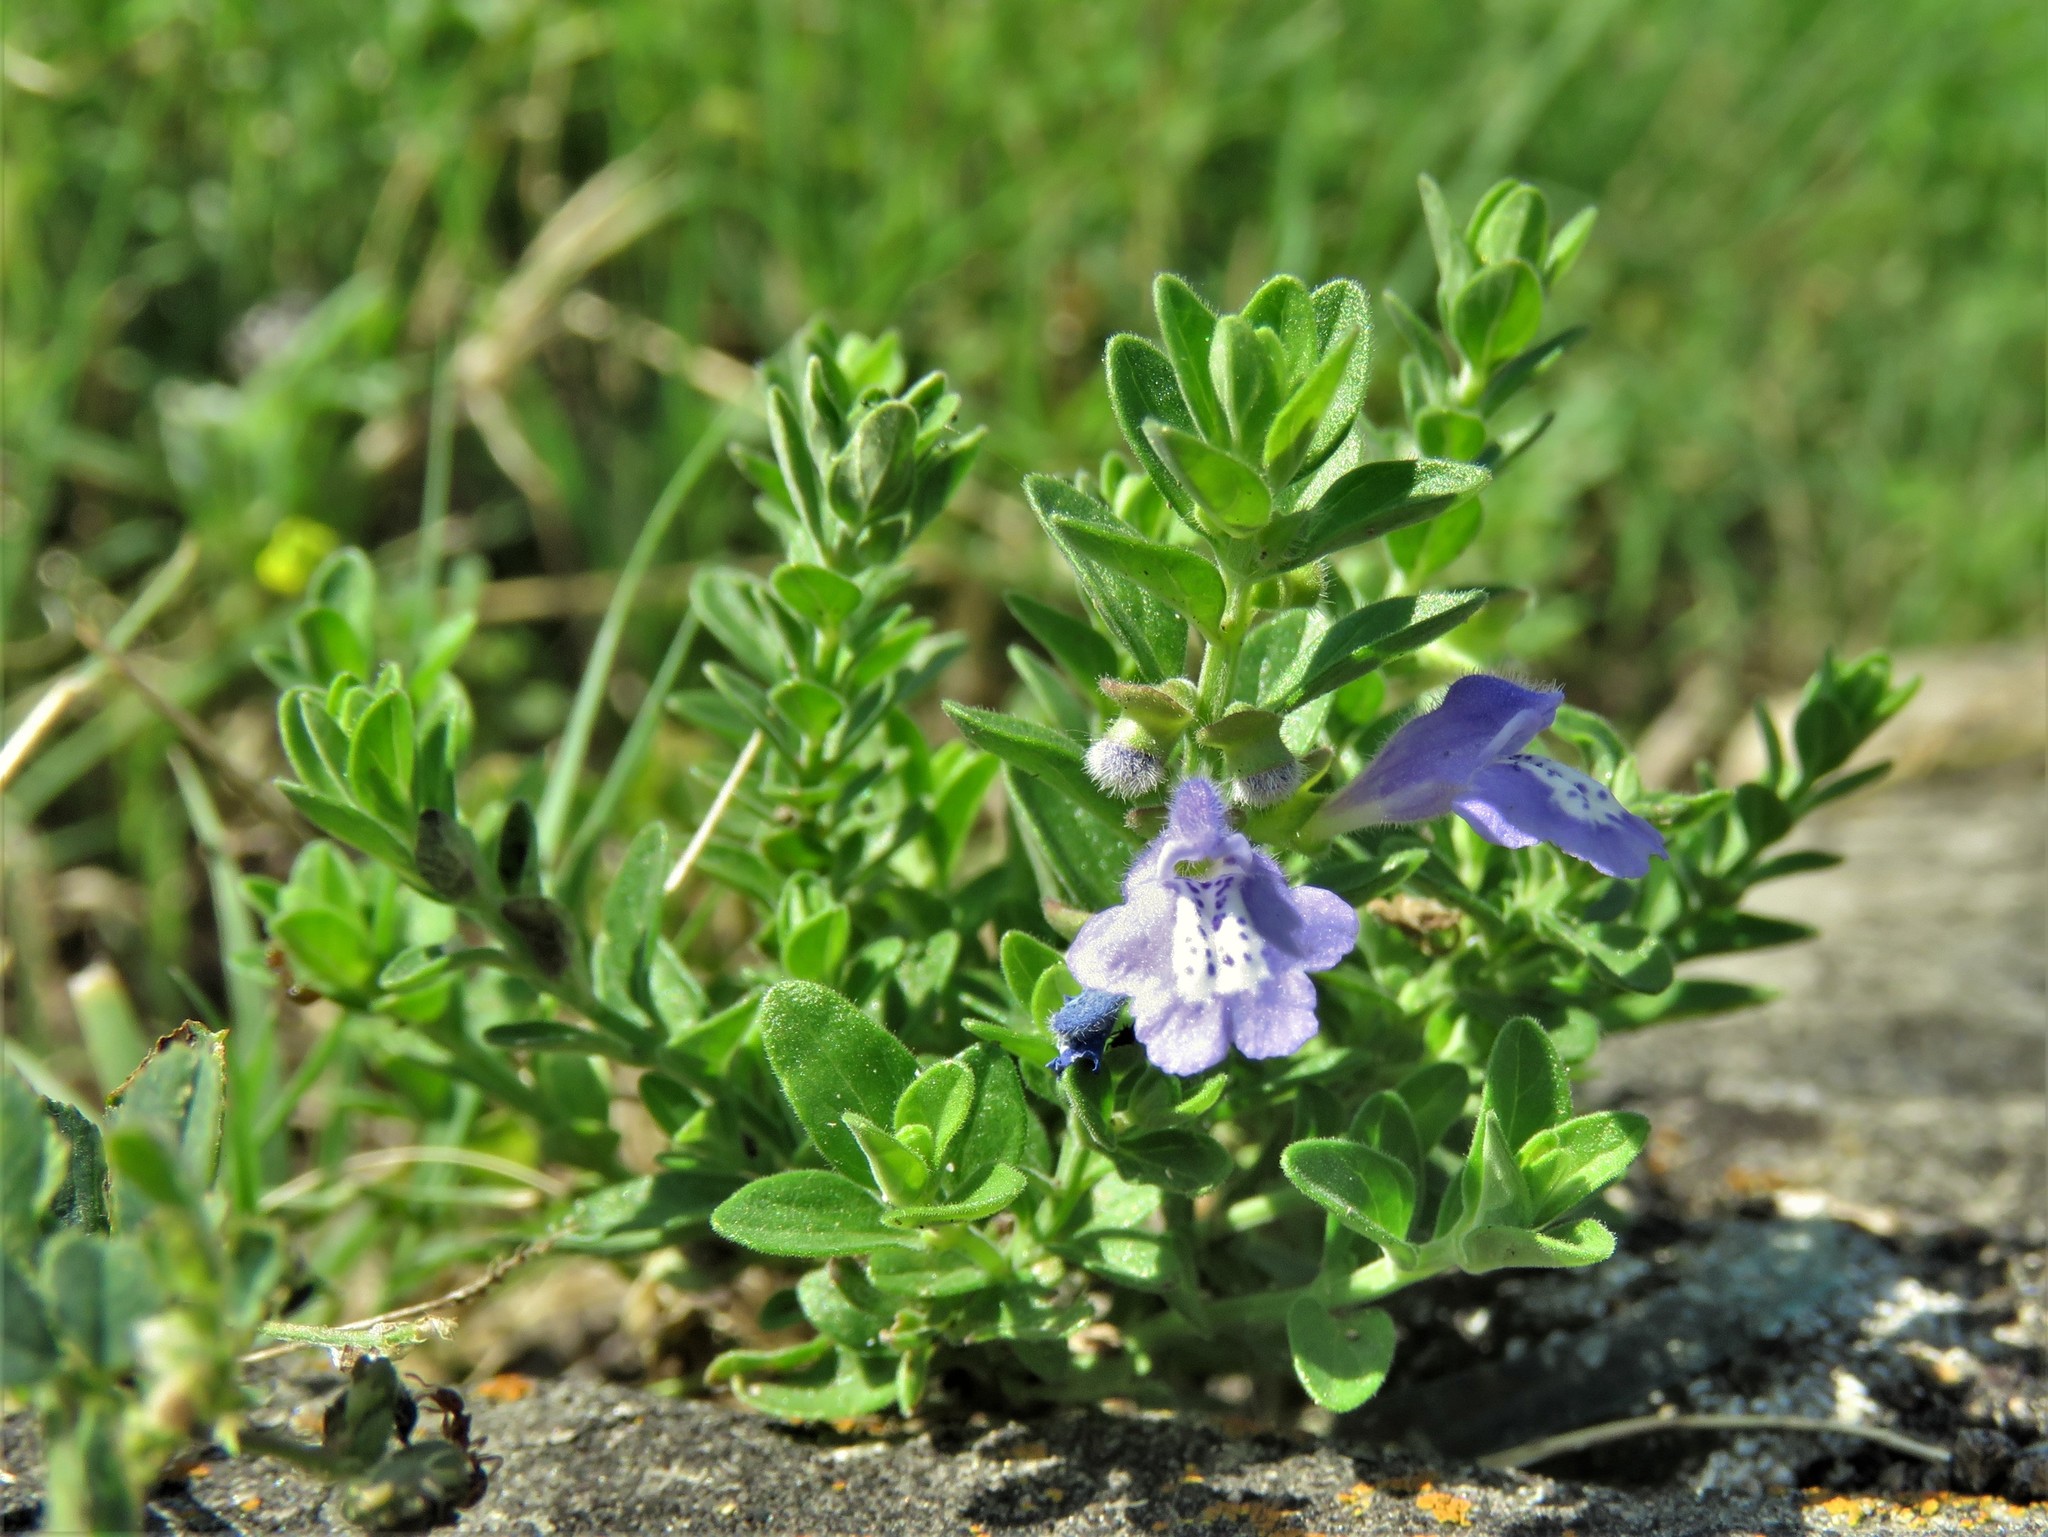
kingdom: Plantae
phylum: Tracheophyta
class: Magnoliopsida
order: Lamiales
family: Lamiaceae
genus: Scutellaria
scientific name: Scutellaria drummondii
